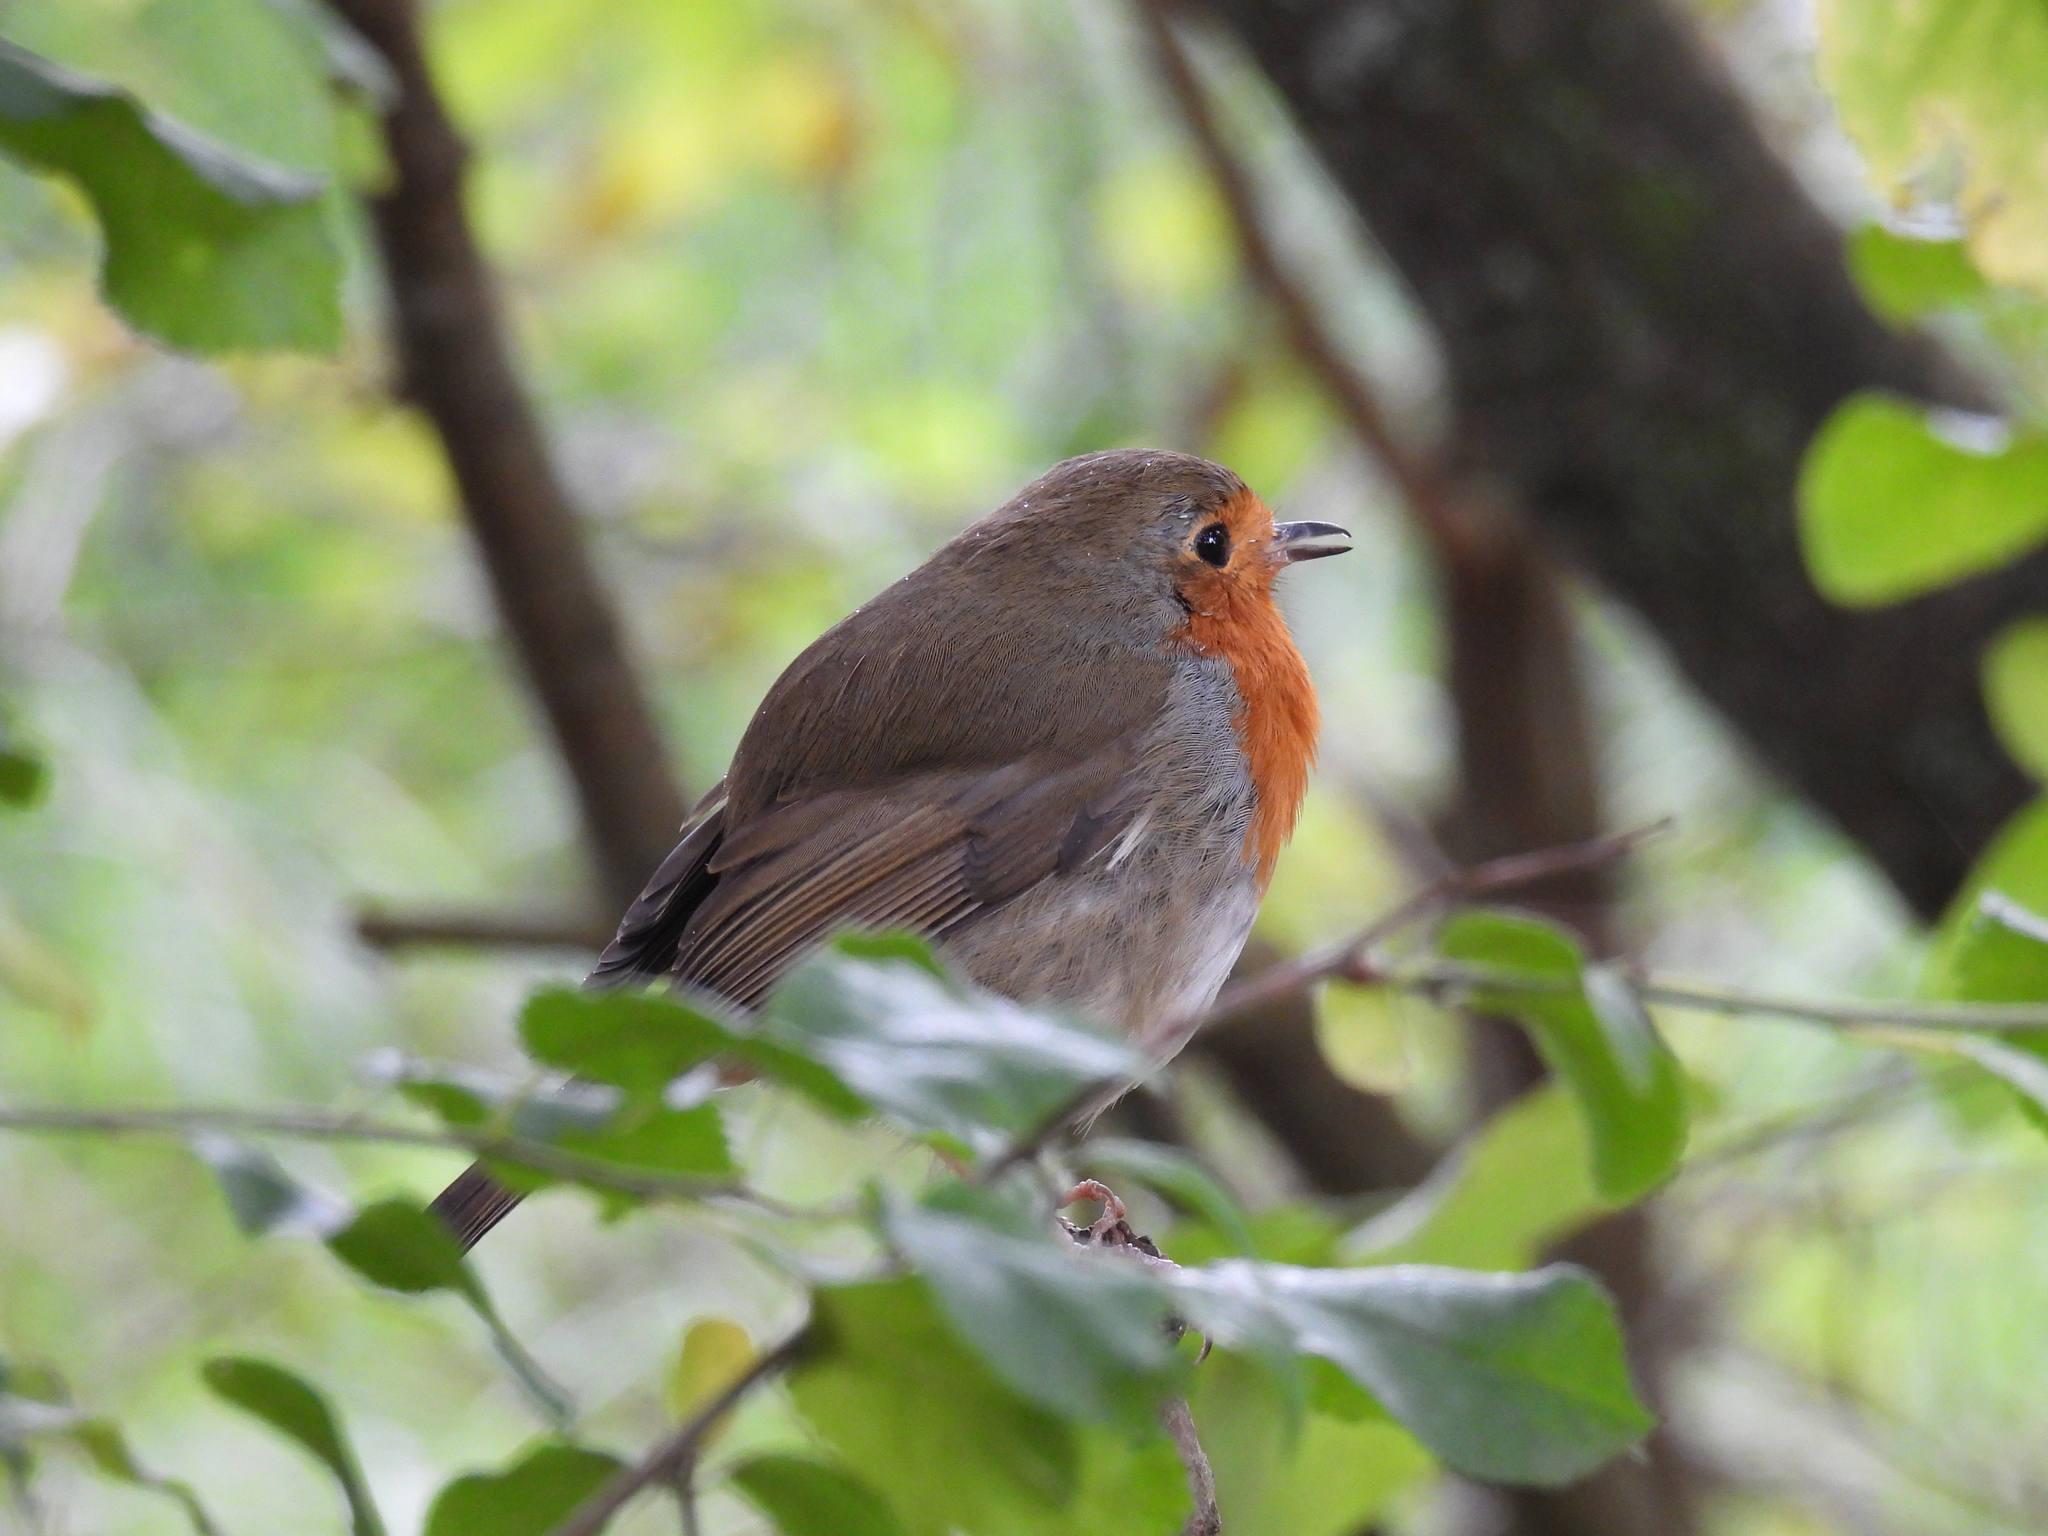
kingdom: Animalia
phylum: Chordata
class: Aves
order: Passeriformes
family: Muscicapidae
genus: Erithacus
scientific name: Erithacus rubecula
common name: European robin
